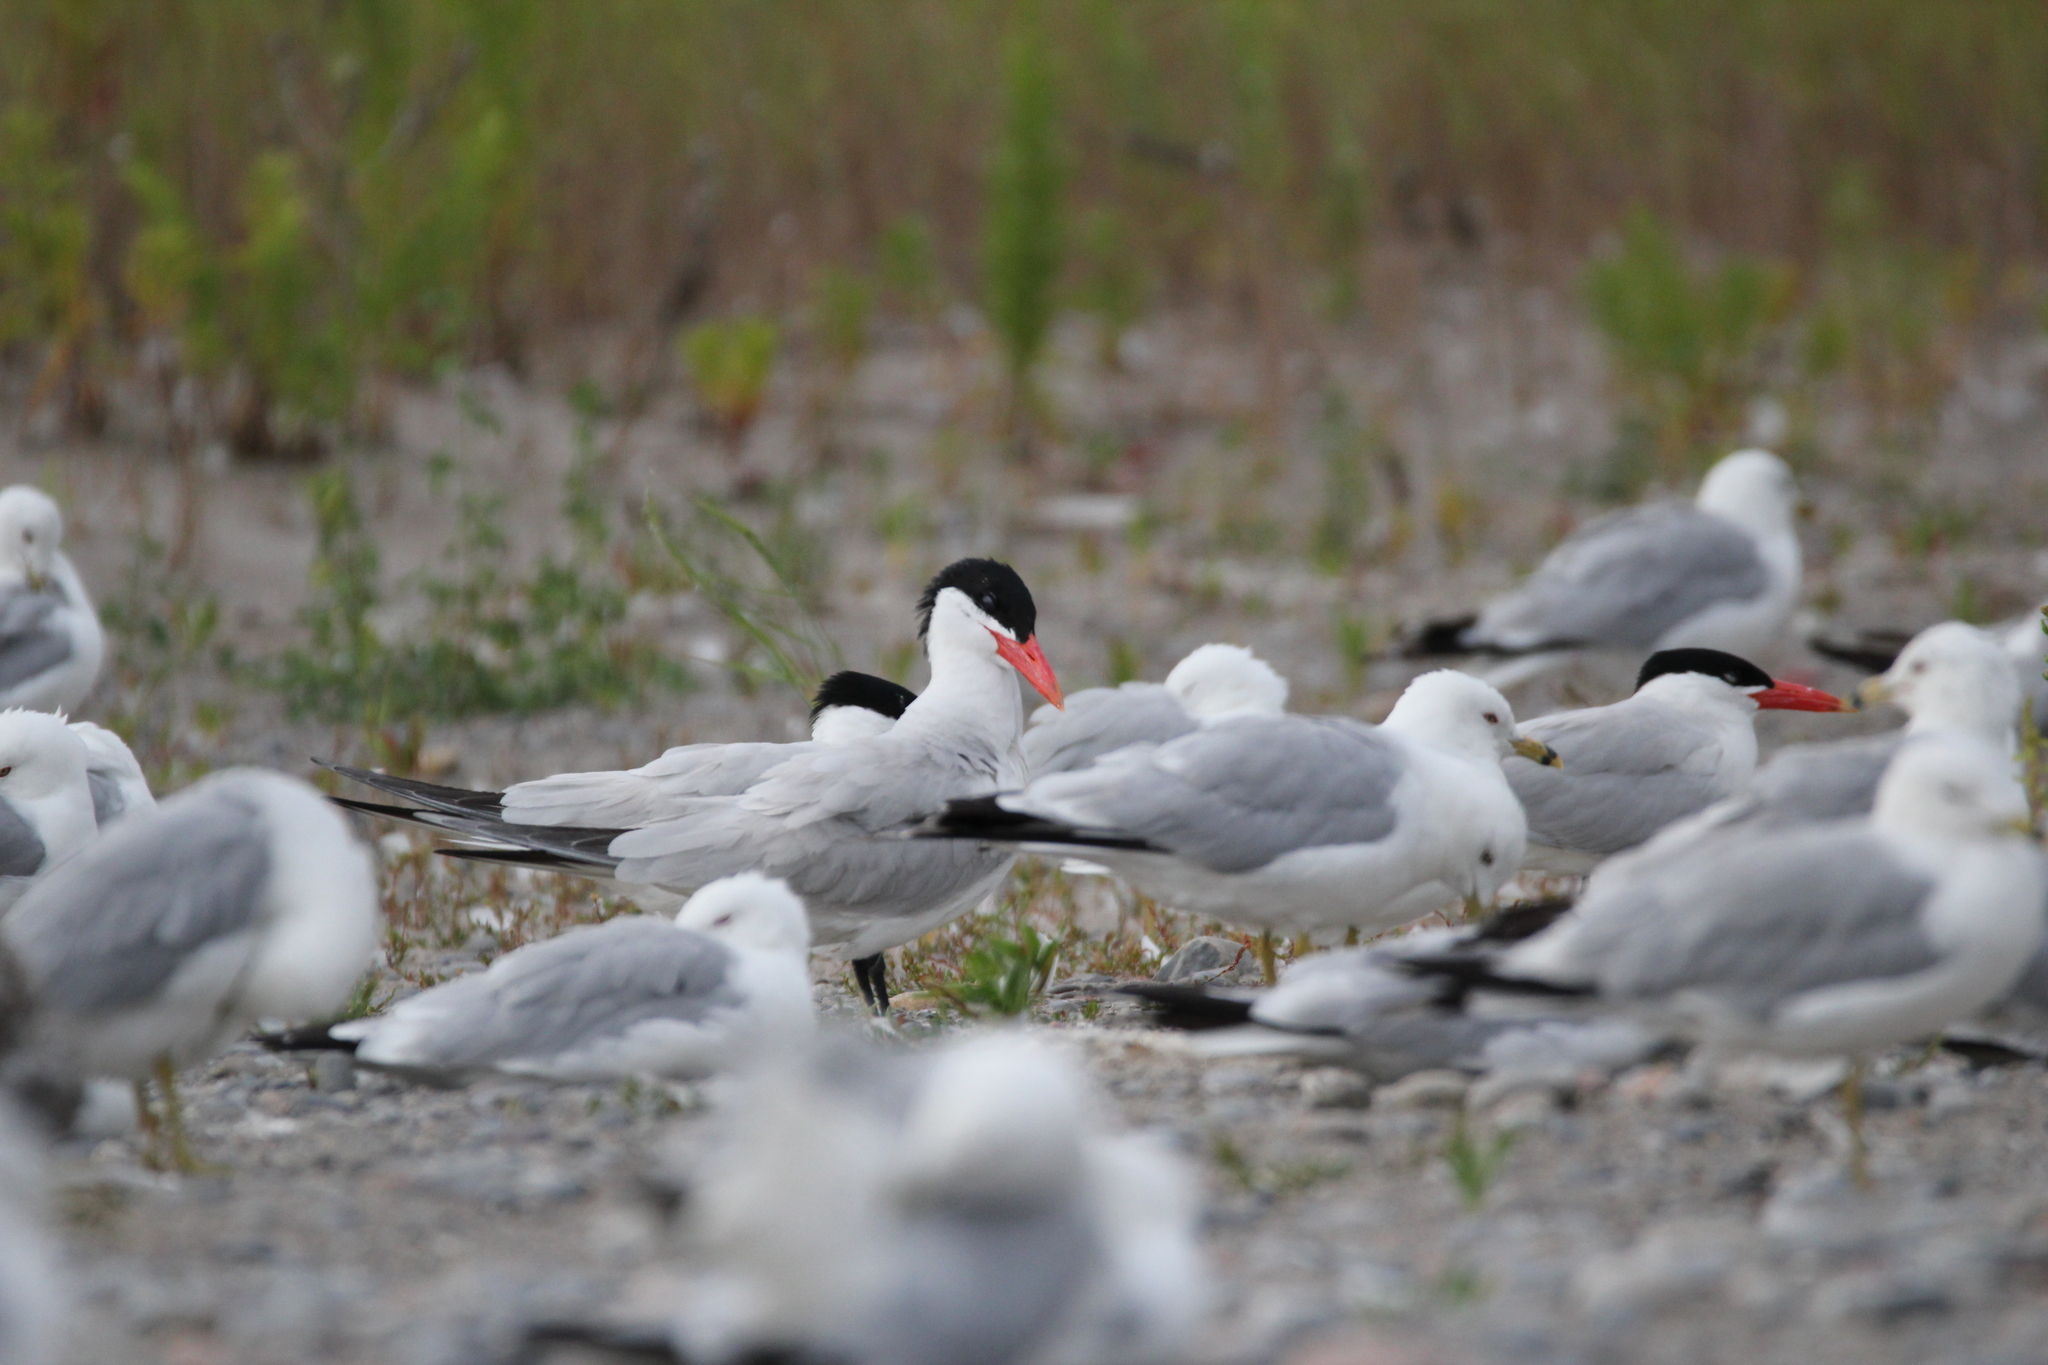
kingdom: Animalia
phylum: Chordata
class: Aves
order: Charadriiformes
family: Laridae
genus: Hydroprogne
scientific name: Hydroprogne caspia
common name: Caspian tern
